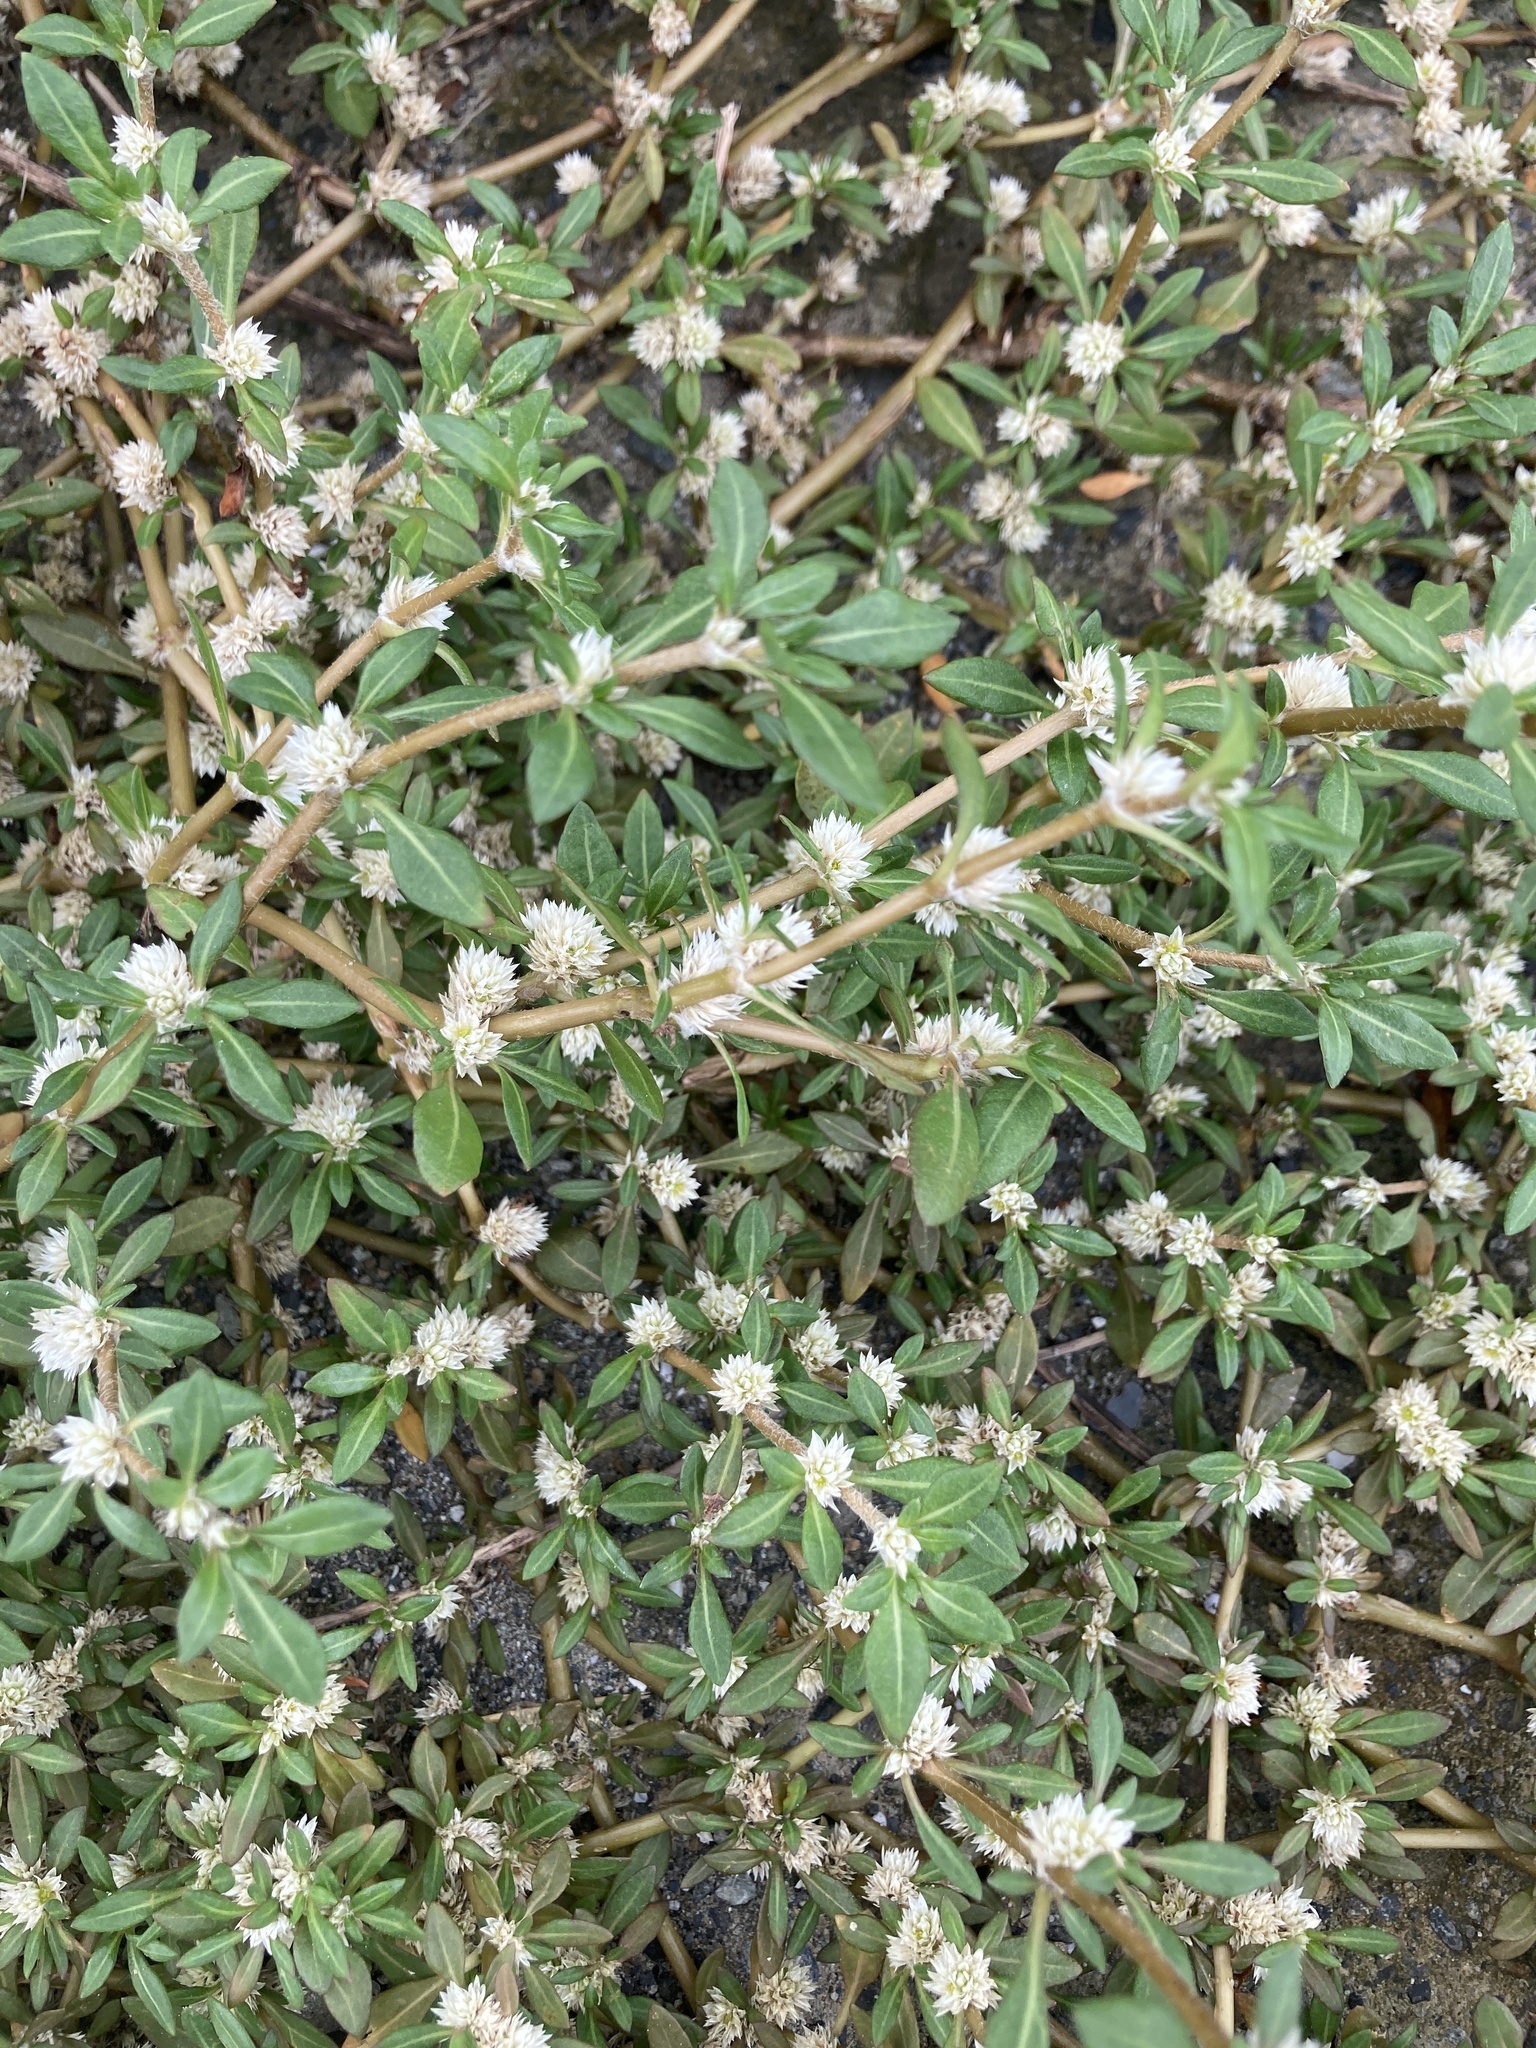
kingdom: Plantae
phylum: Tracheophyta
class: Magnoliopsida
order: Caryophyllales
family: Amaranthaceae
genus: Alternanthera
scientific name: Alternanthera paronychioides
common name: Smooth joyweed
